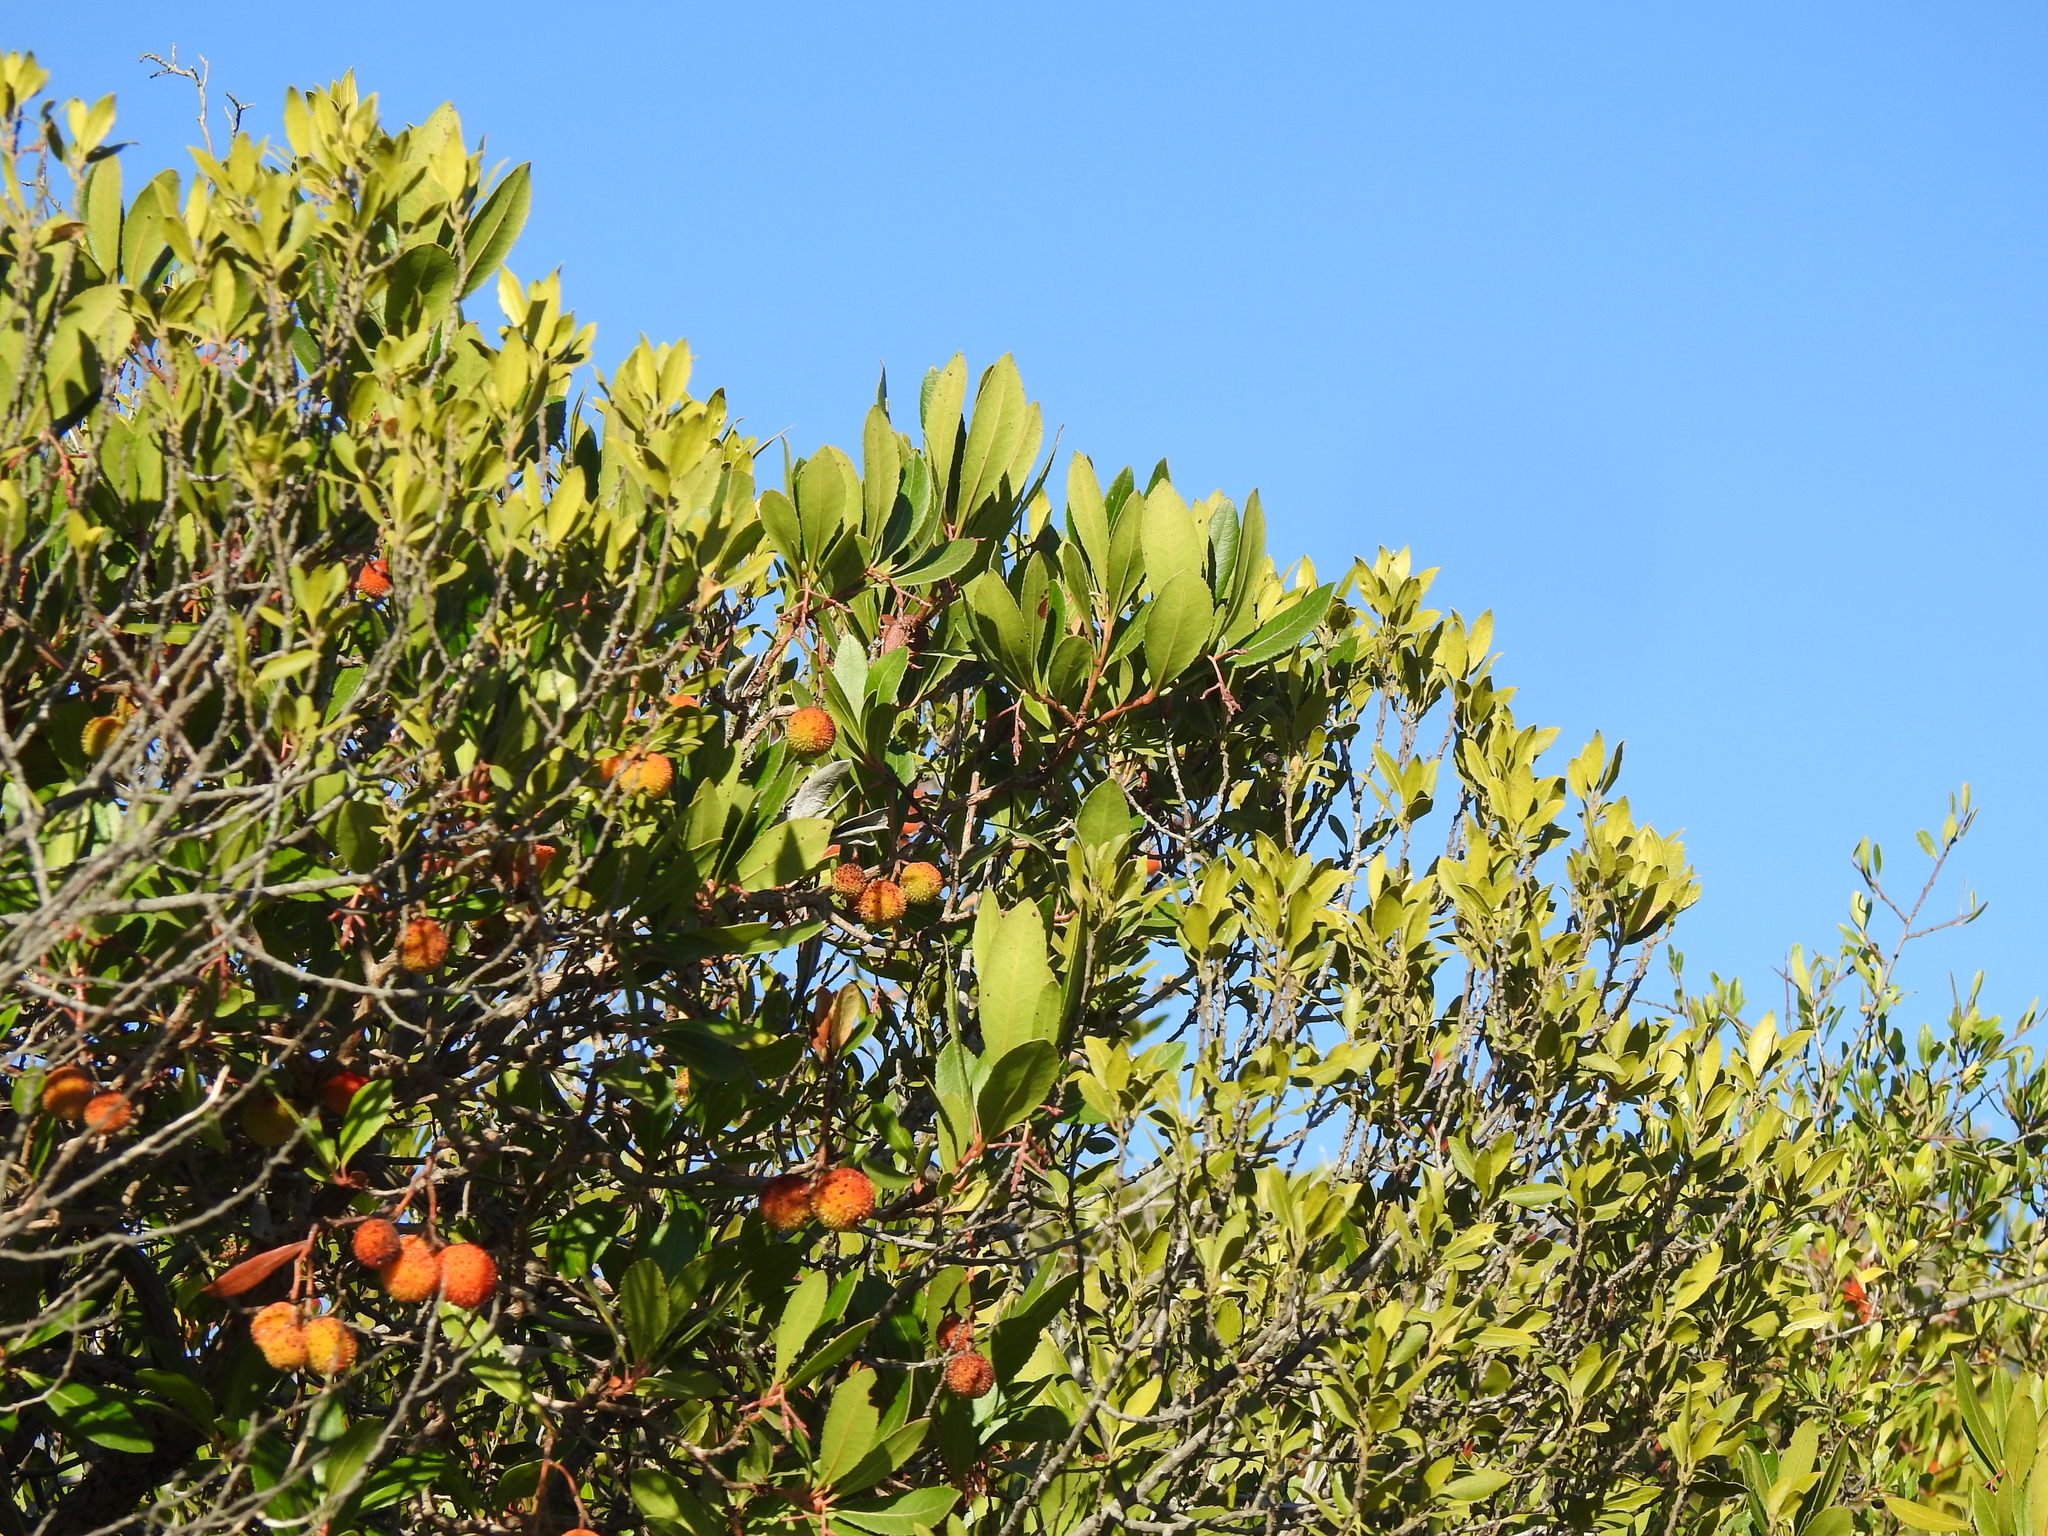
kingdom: Plantae
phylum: Tracheophyta
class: Magnoliopsida
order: Ericales
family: Ericaceae
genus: Arbutus
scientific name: Arbutus unedo
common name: Strawberry-tree
